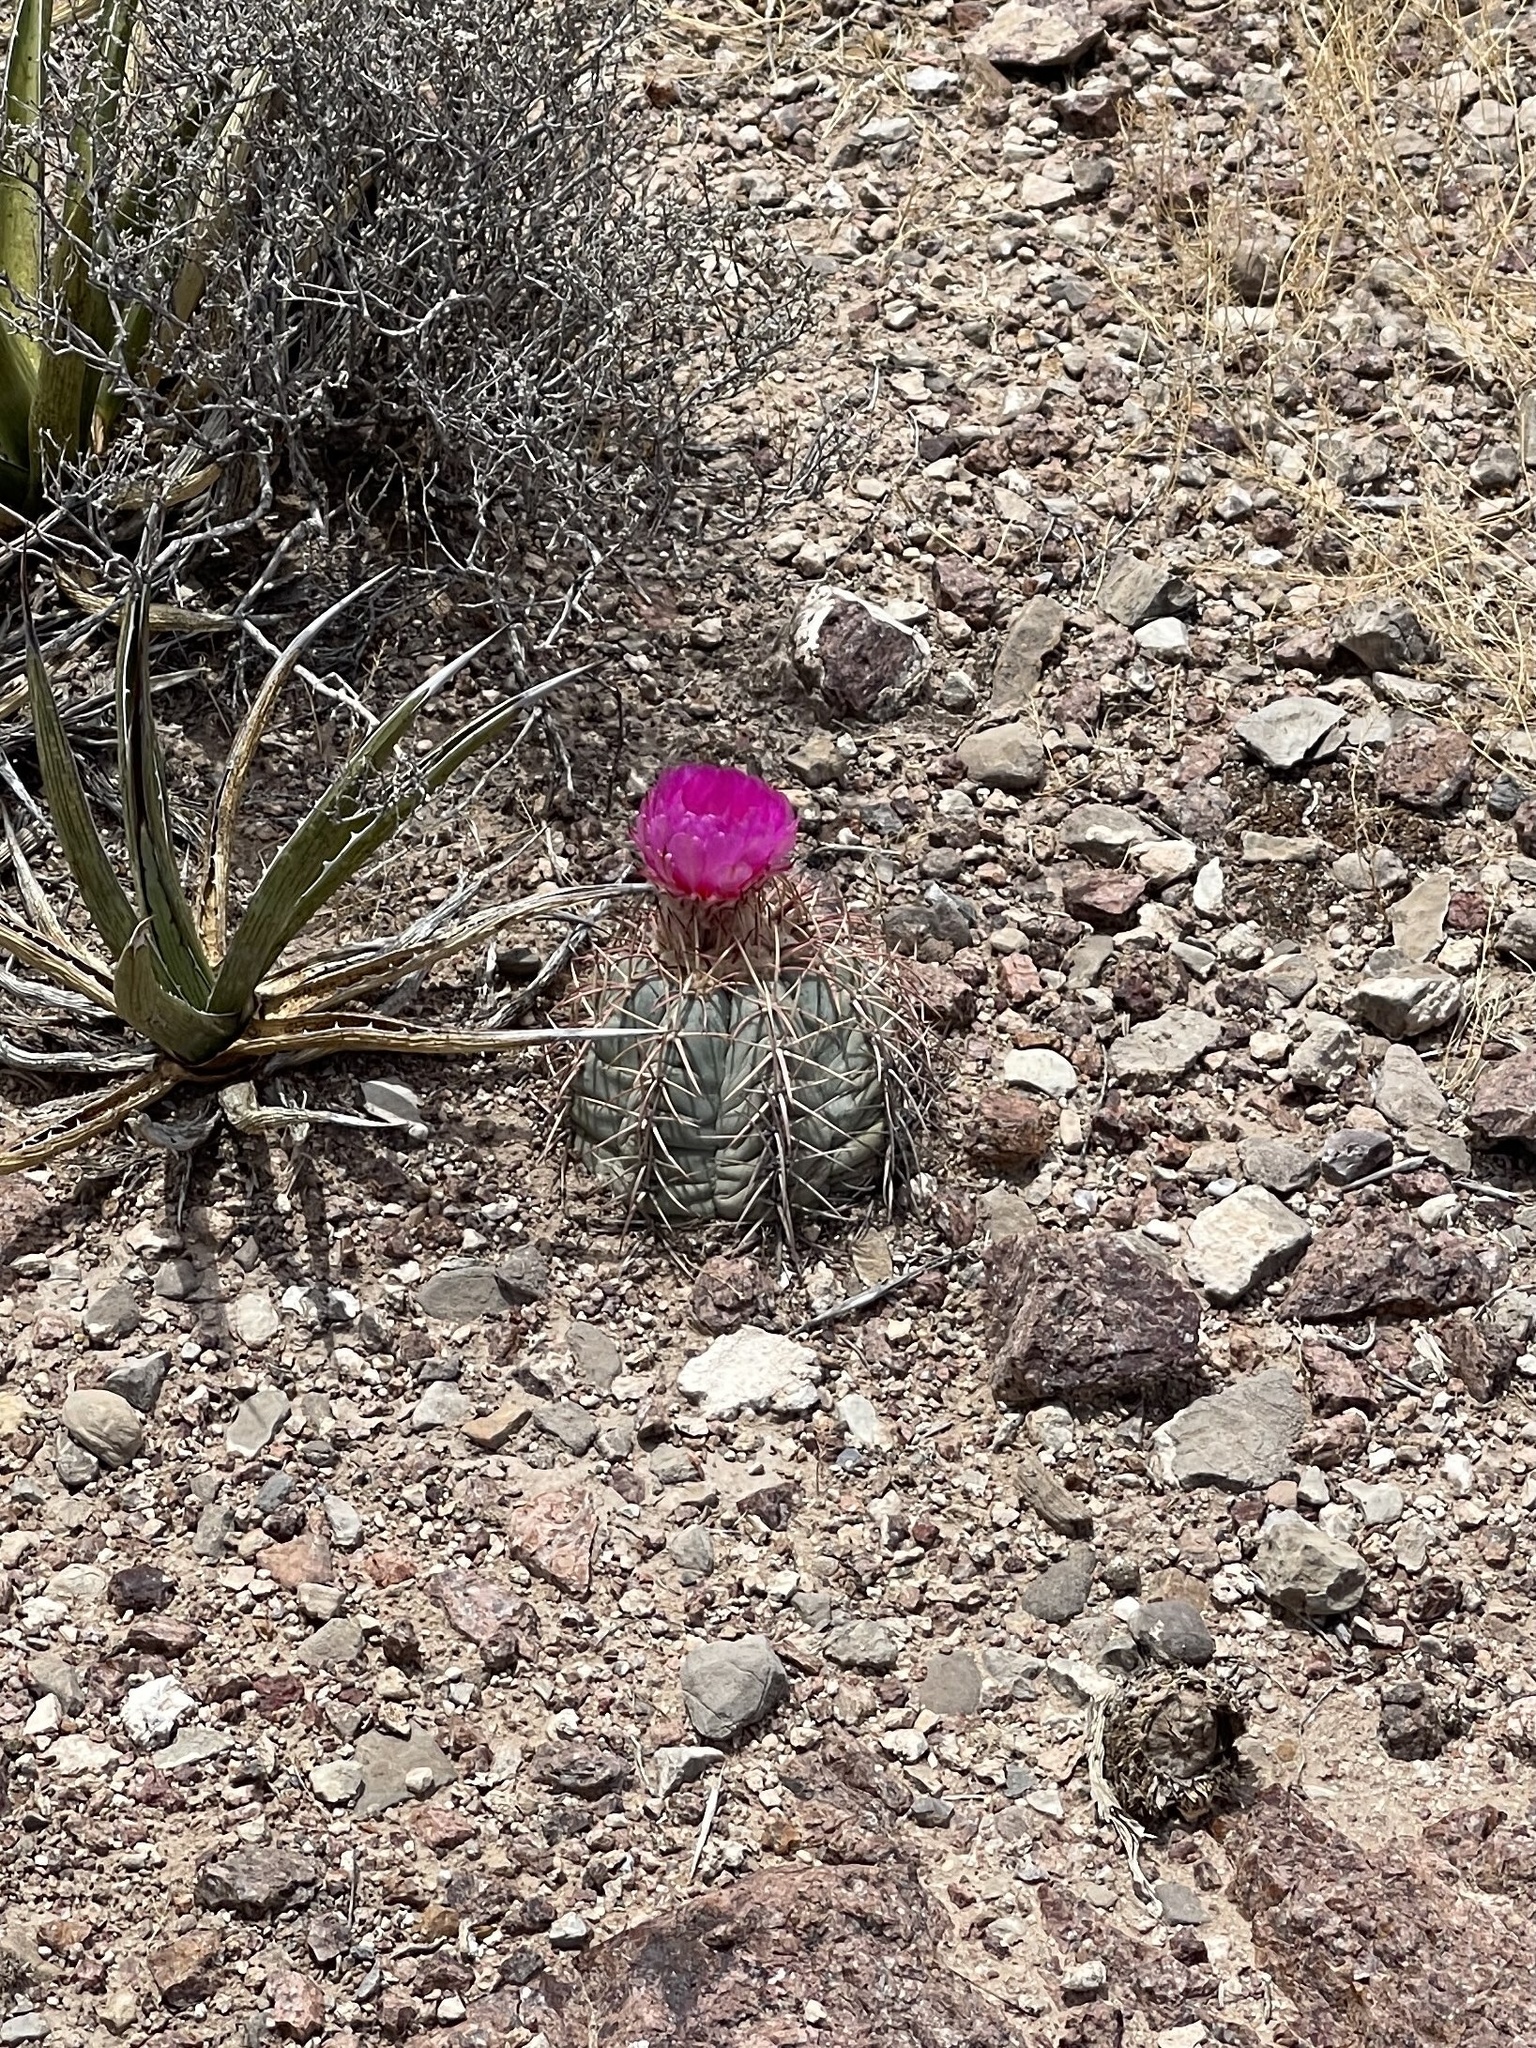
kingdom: Plantae
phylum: Tracheophyta
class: Magnoliopsida
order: Caryophyllales
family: Cactaceae
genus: Echinocactus
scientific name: Echinocactus horizonthalonius
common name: Devilshead
